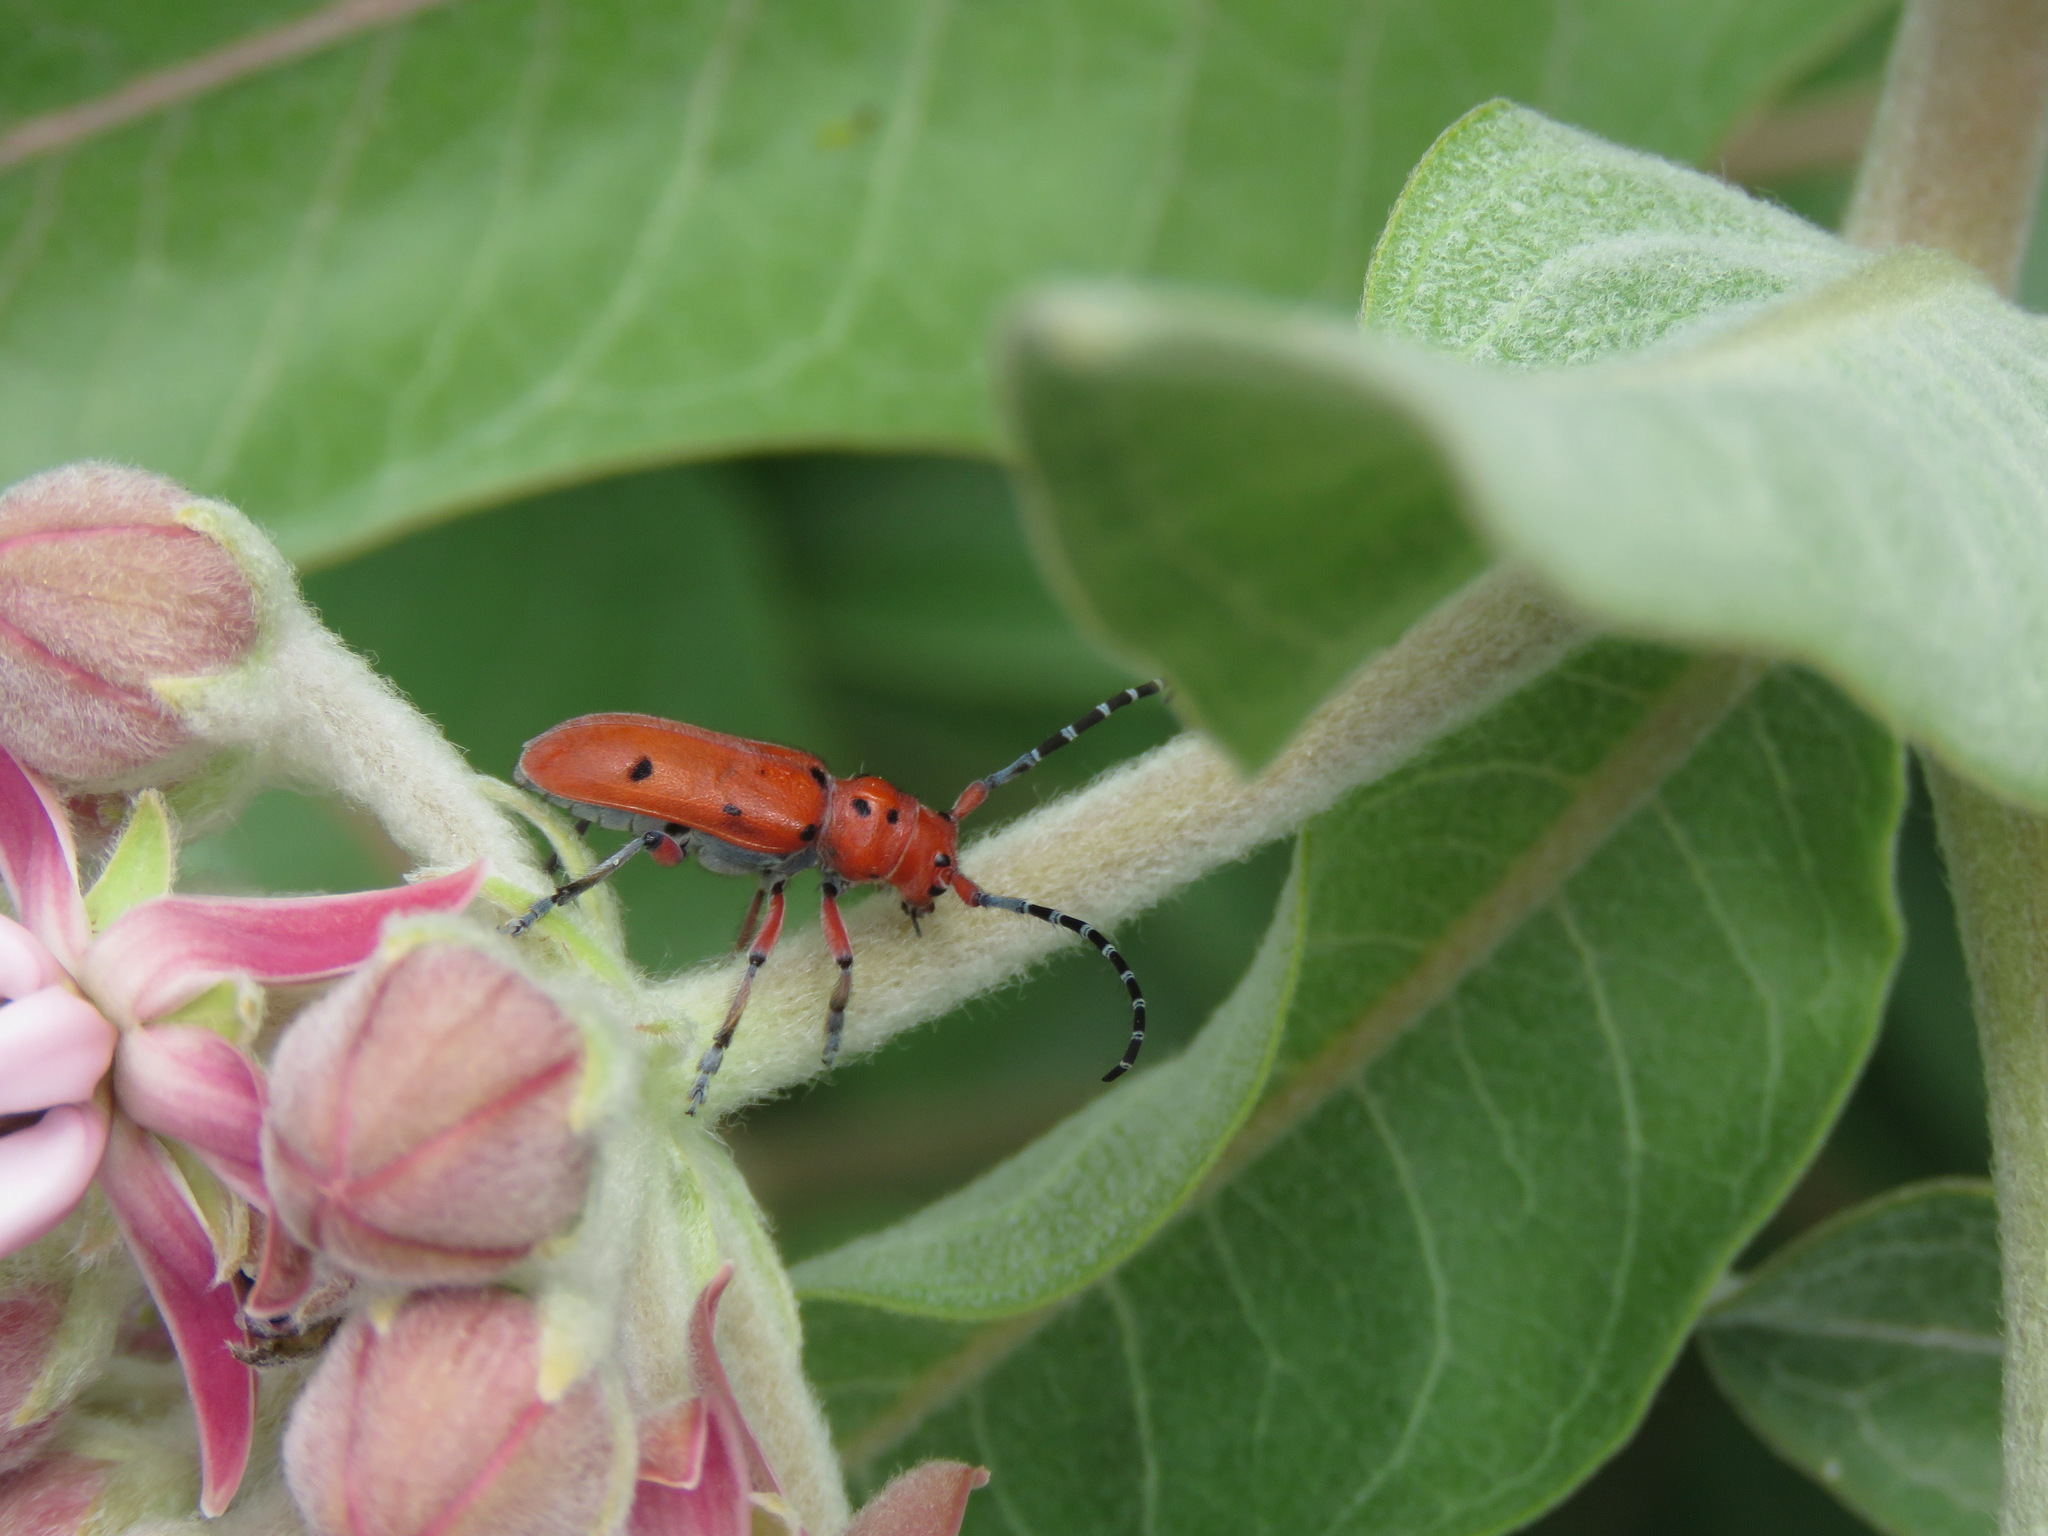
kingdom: Animalia
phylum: Arthropoda
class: Insecta
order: Coleoptera
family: Cerambycidae
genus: Tetraopes
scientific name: Tetraopes femoratus
